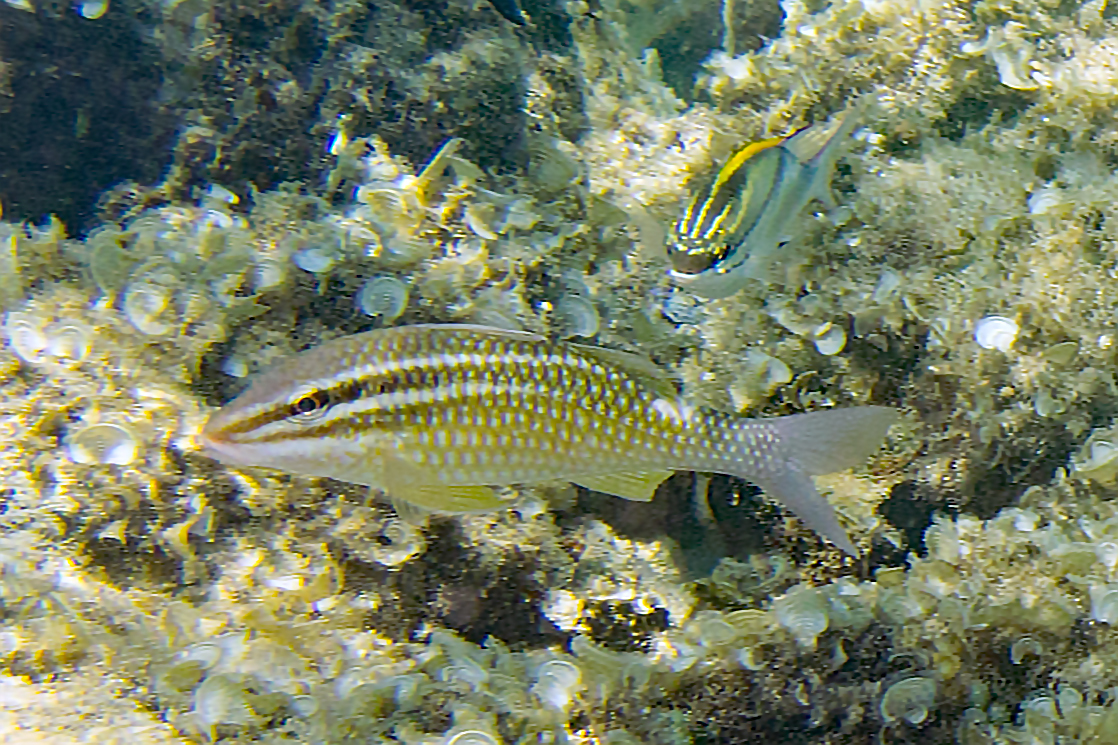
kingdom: Animalia
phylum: Chordata
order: Perciformes
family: Nemipteridae
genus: Scolopsis
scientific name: Scolopsis bilineata
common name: Two-lined monocle bream
